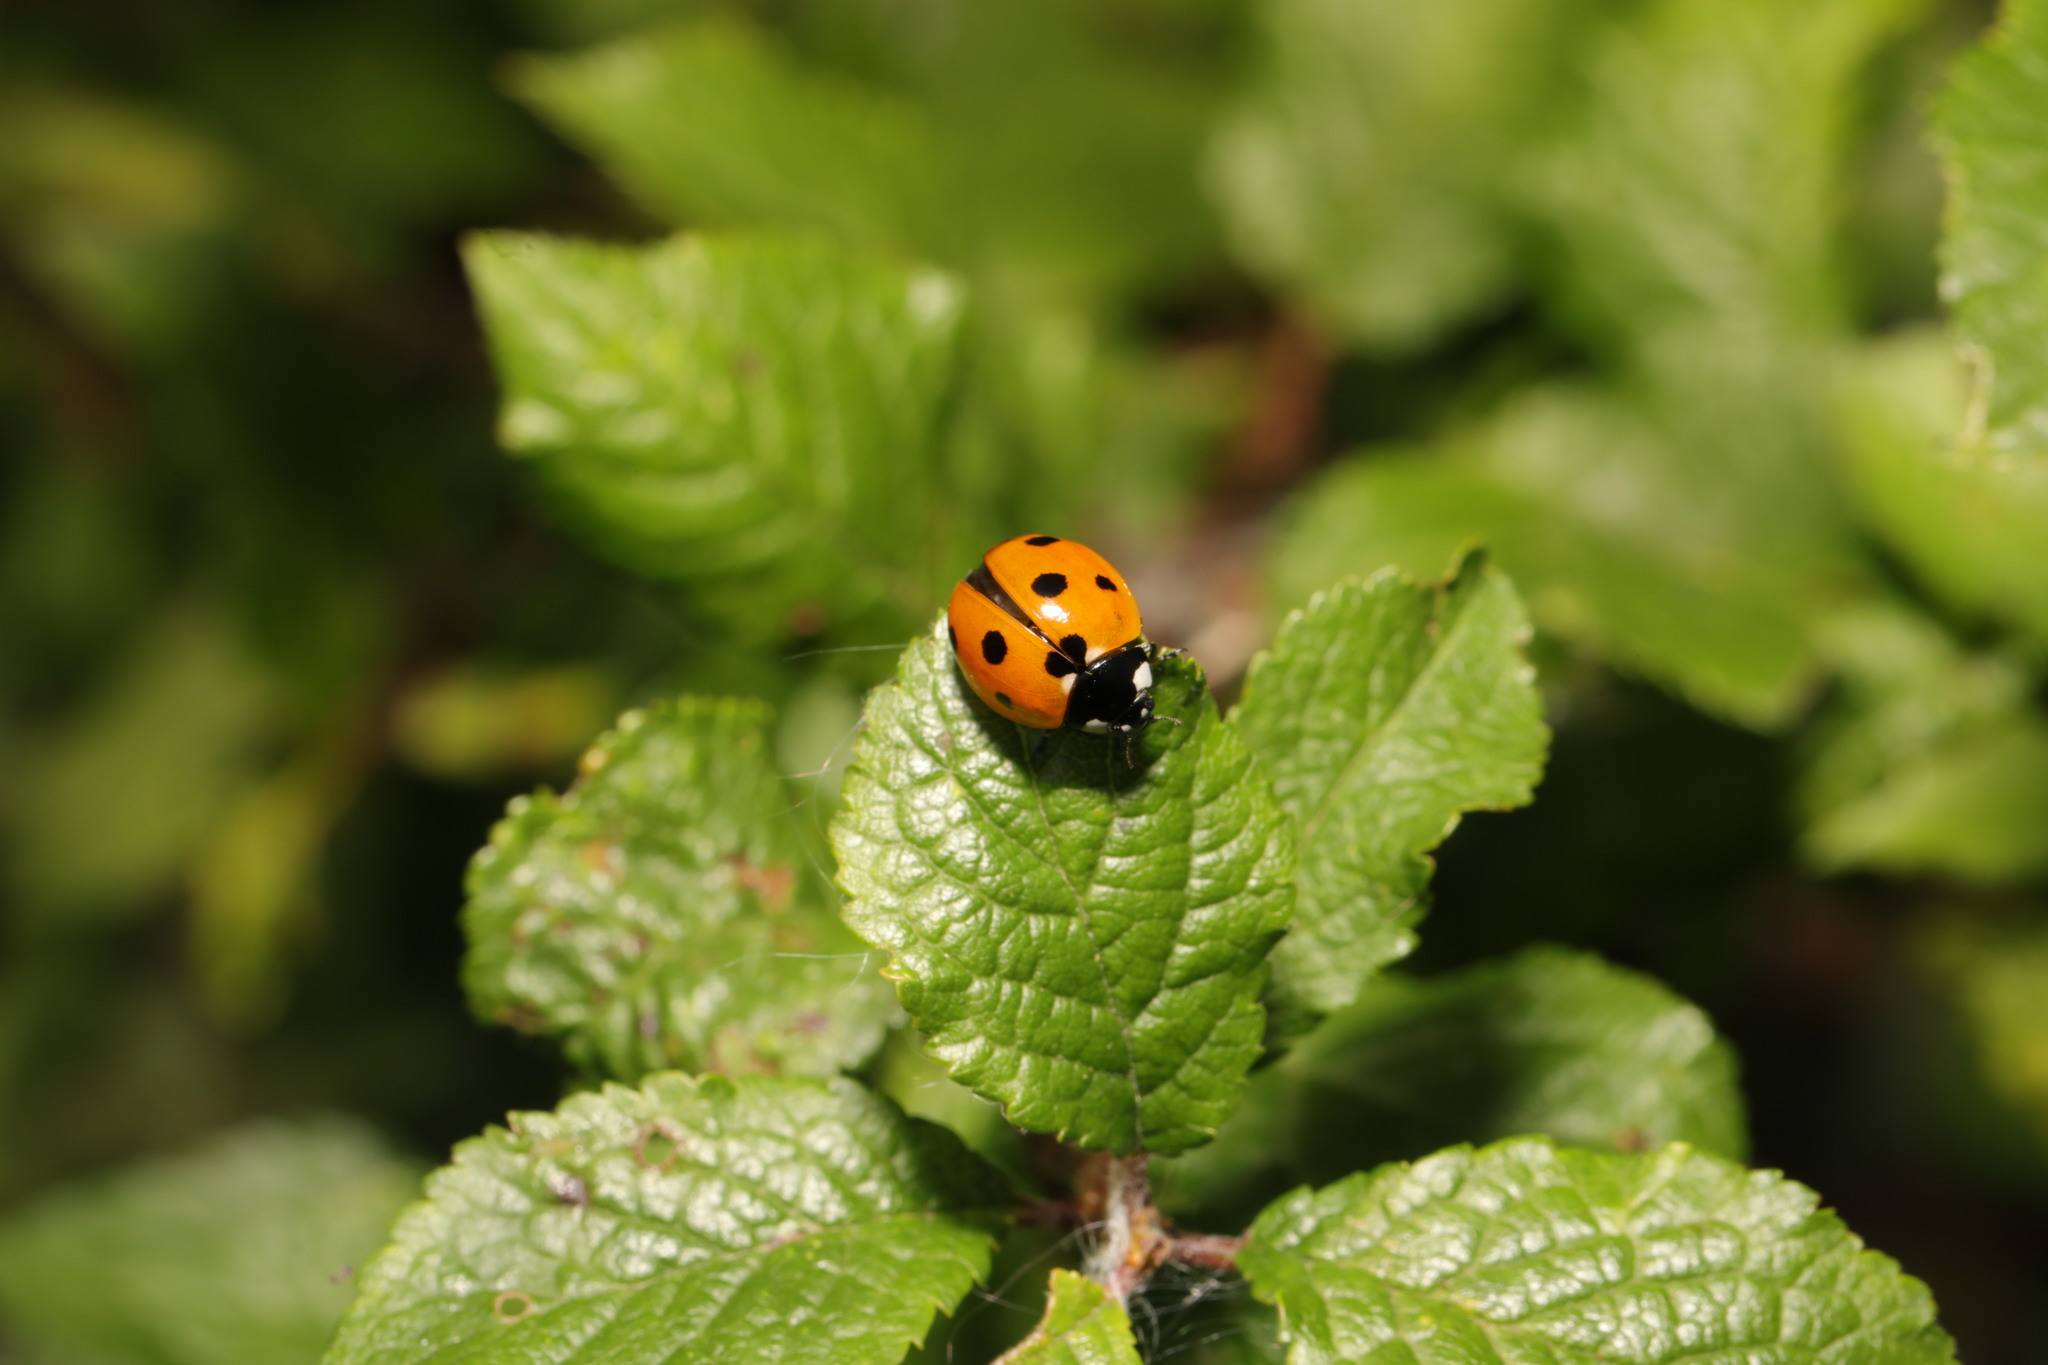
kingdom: Animalia
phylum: Arthropoda
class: Insecta
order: Coleoptera
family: Coccinellidae
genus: Coccinella
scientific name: Coccinella septempunctata
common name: Sevenspotted lady beetle
